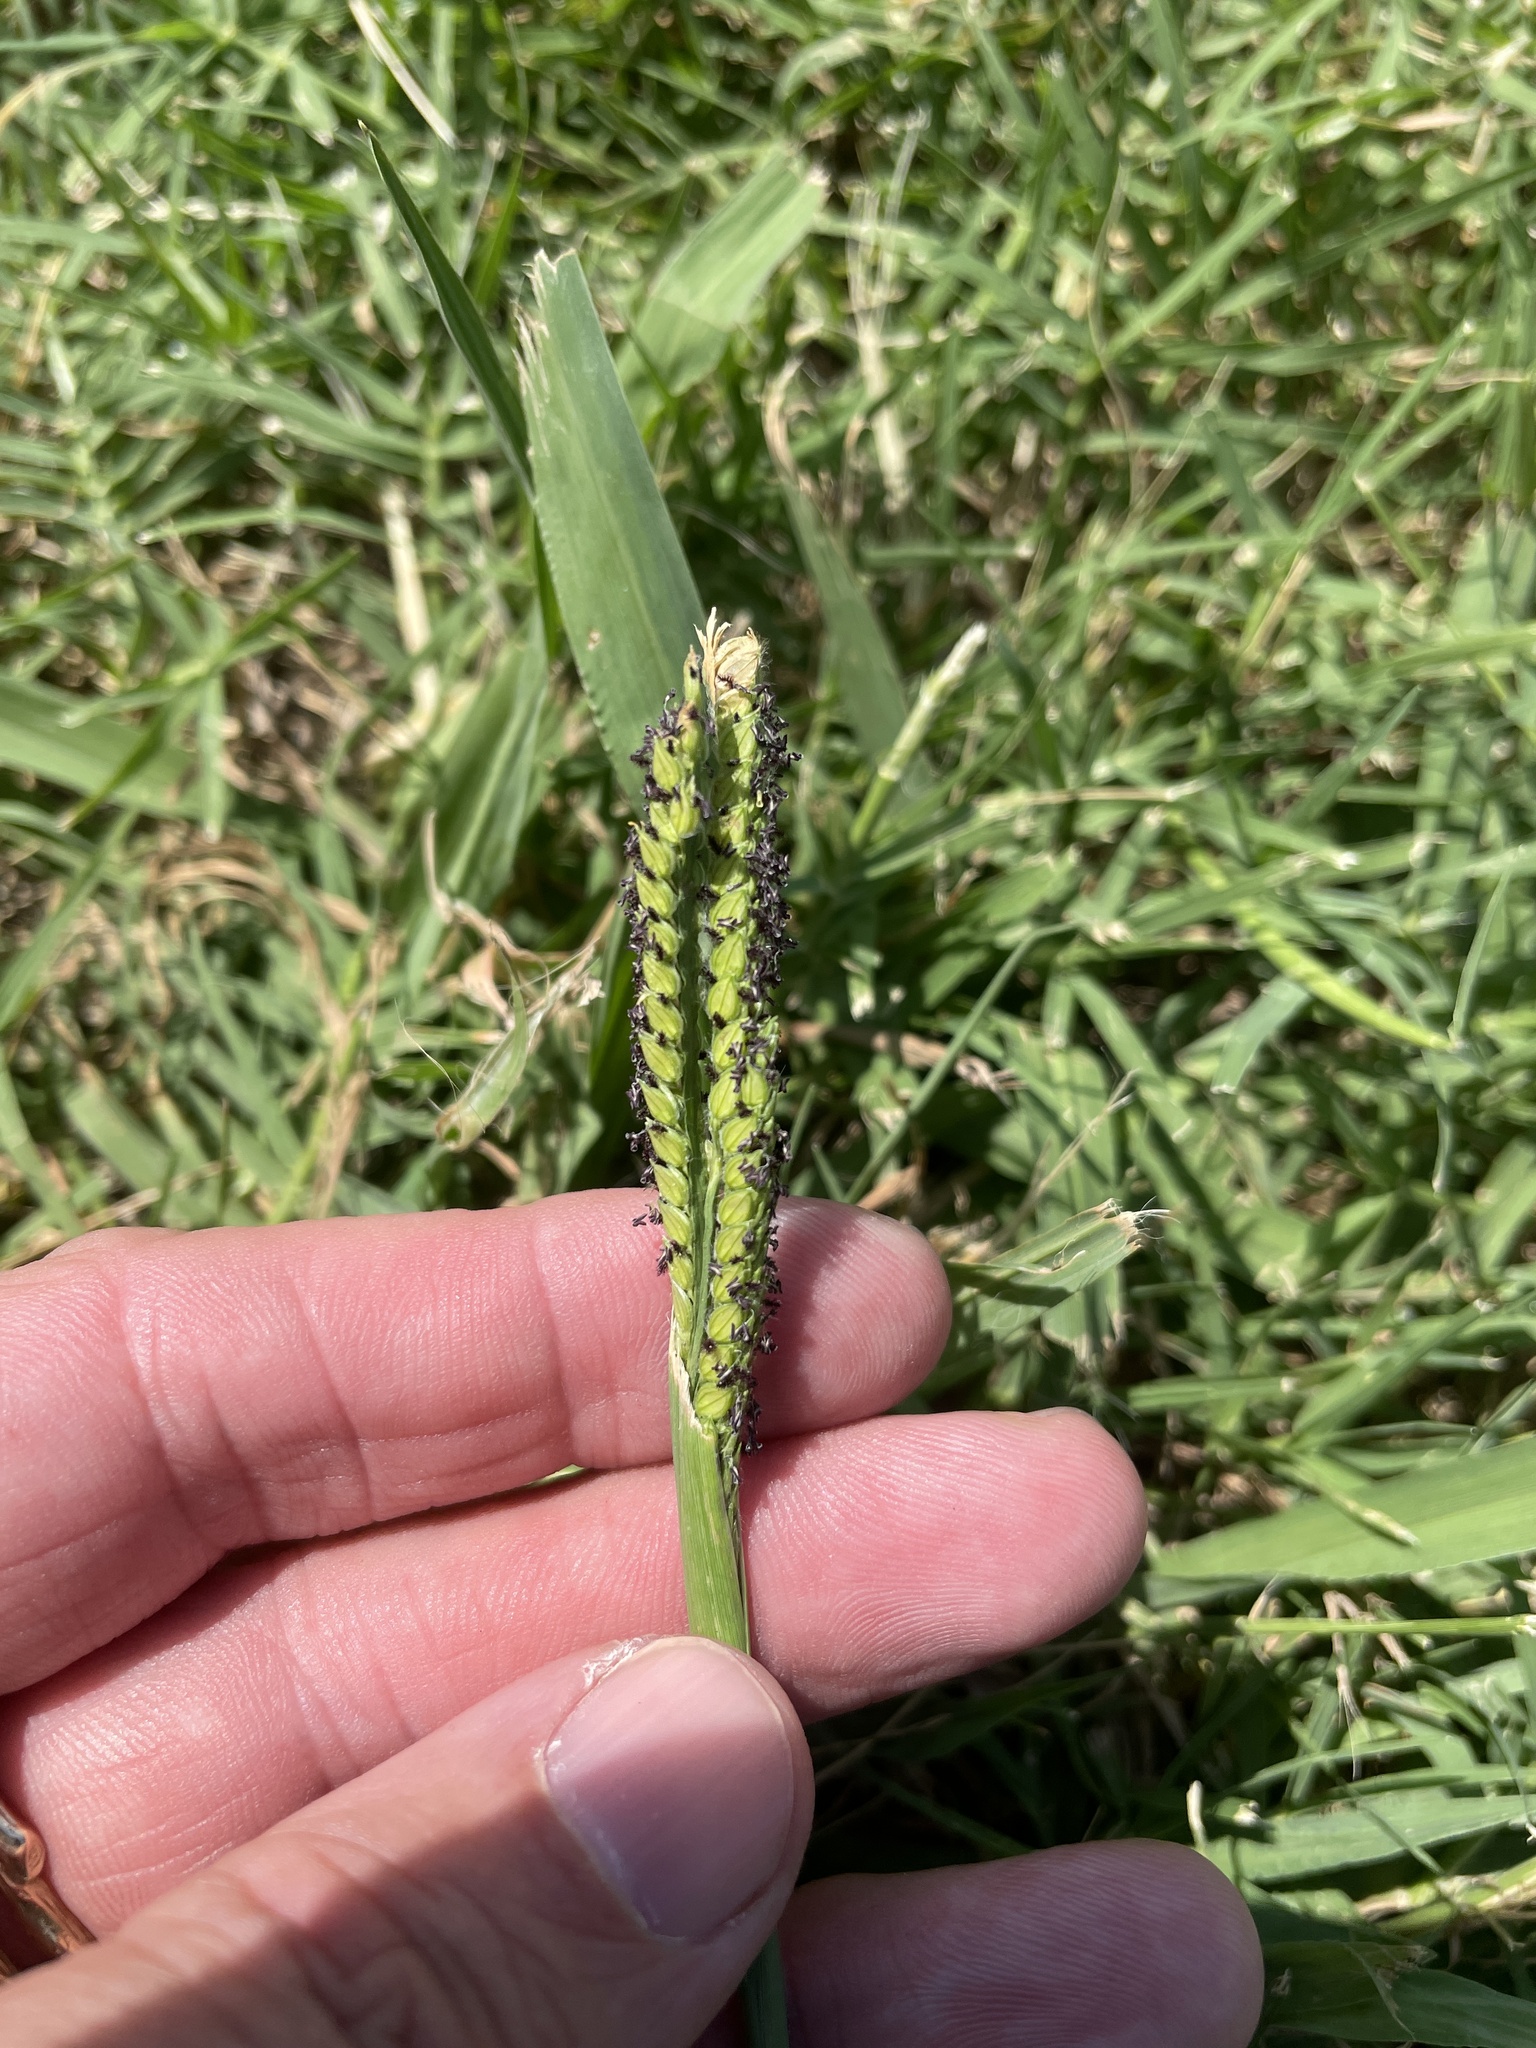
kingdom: Plantae
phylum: Tracheophyta
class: Liliopsida
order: Poales
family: Poaceae
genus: Paspalum
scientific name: Paspalum dilatatum
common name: Dallisgrass
